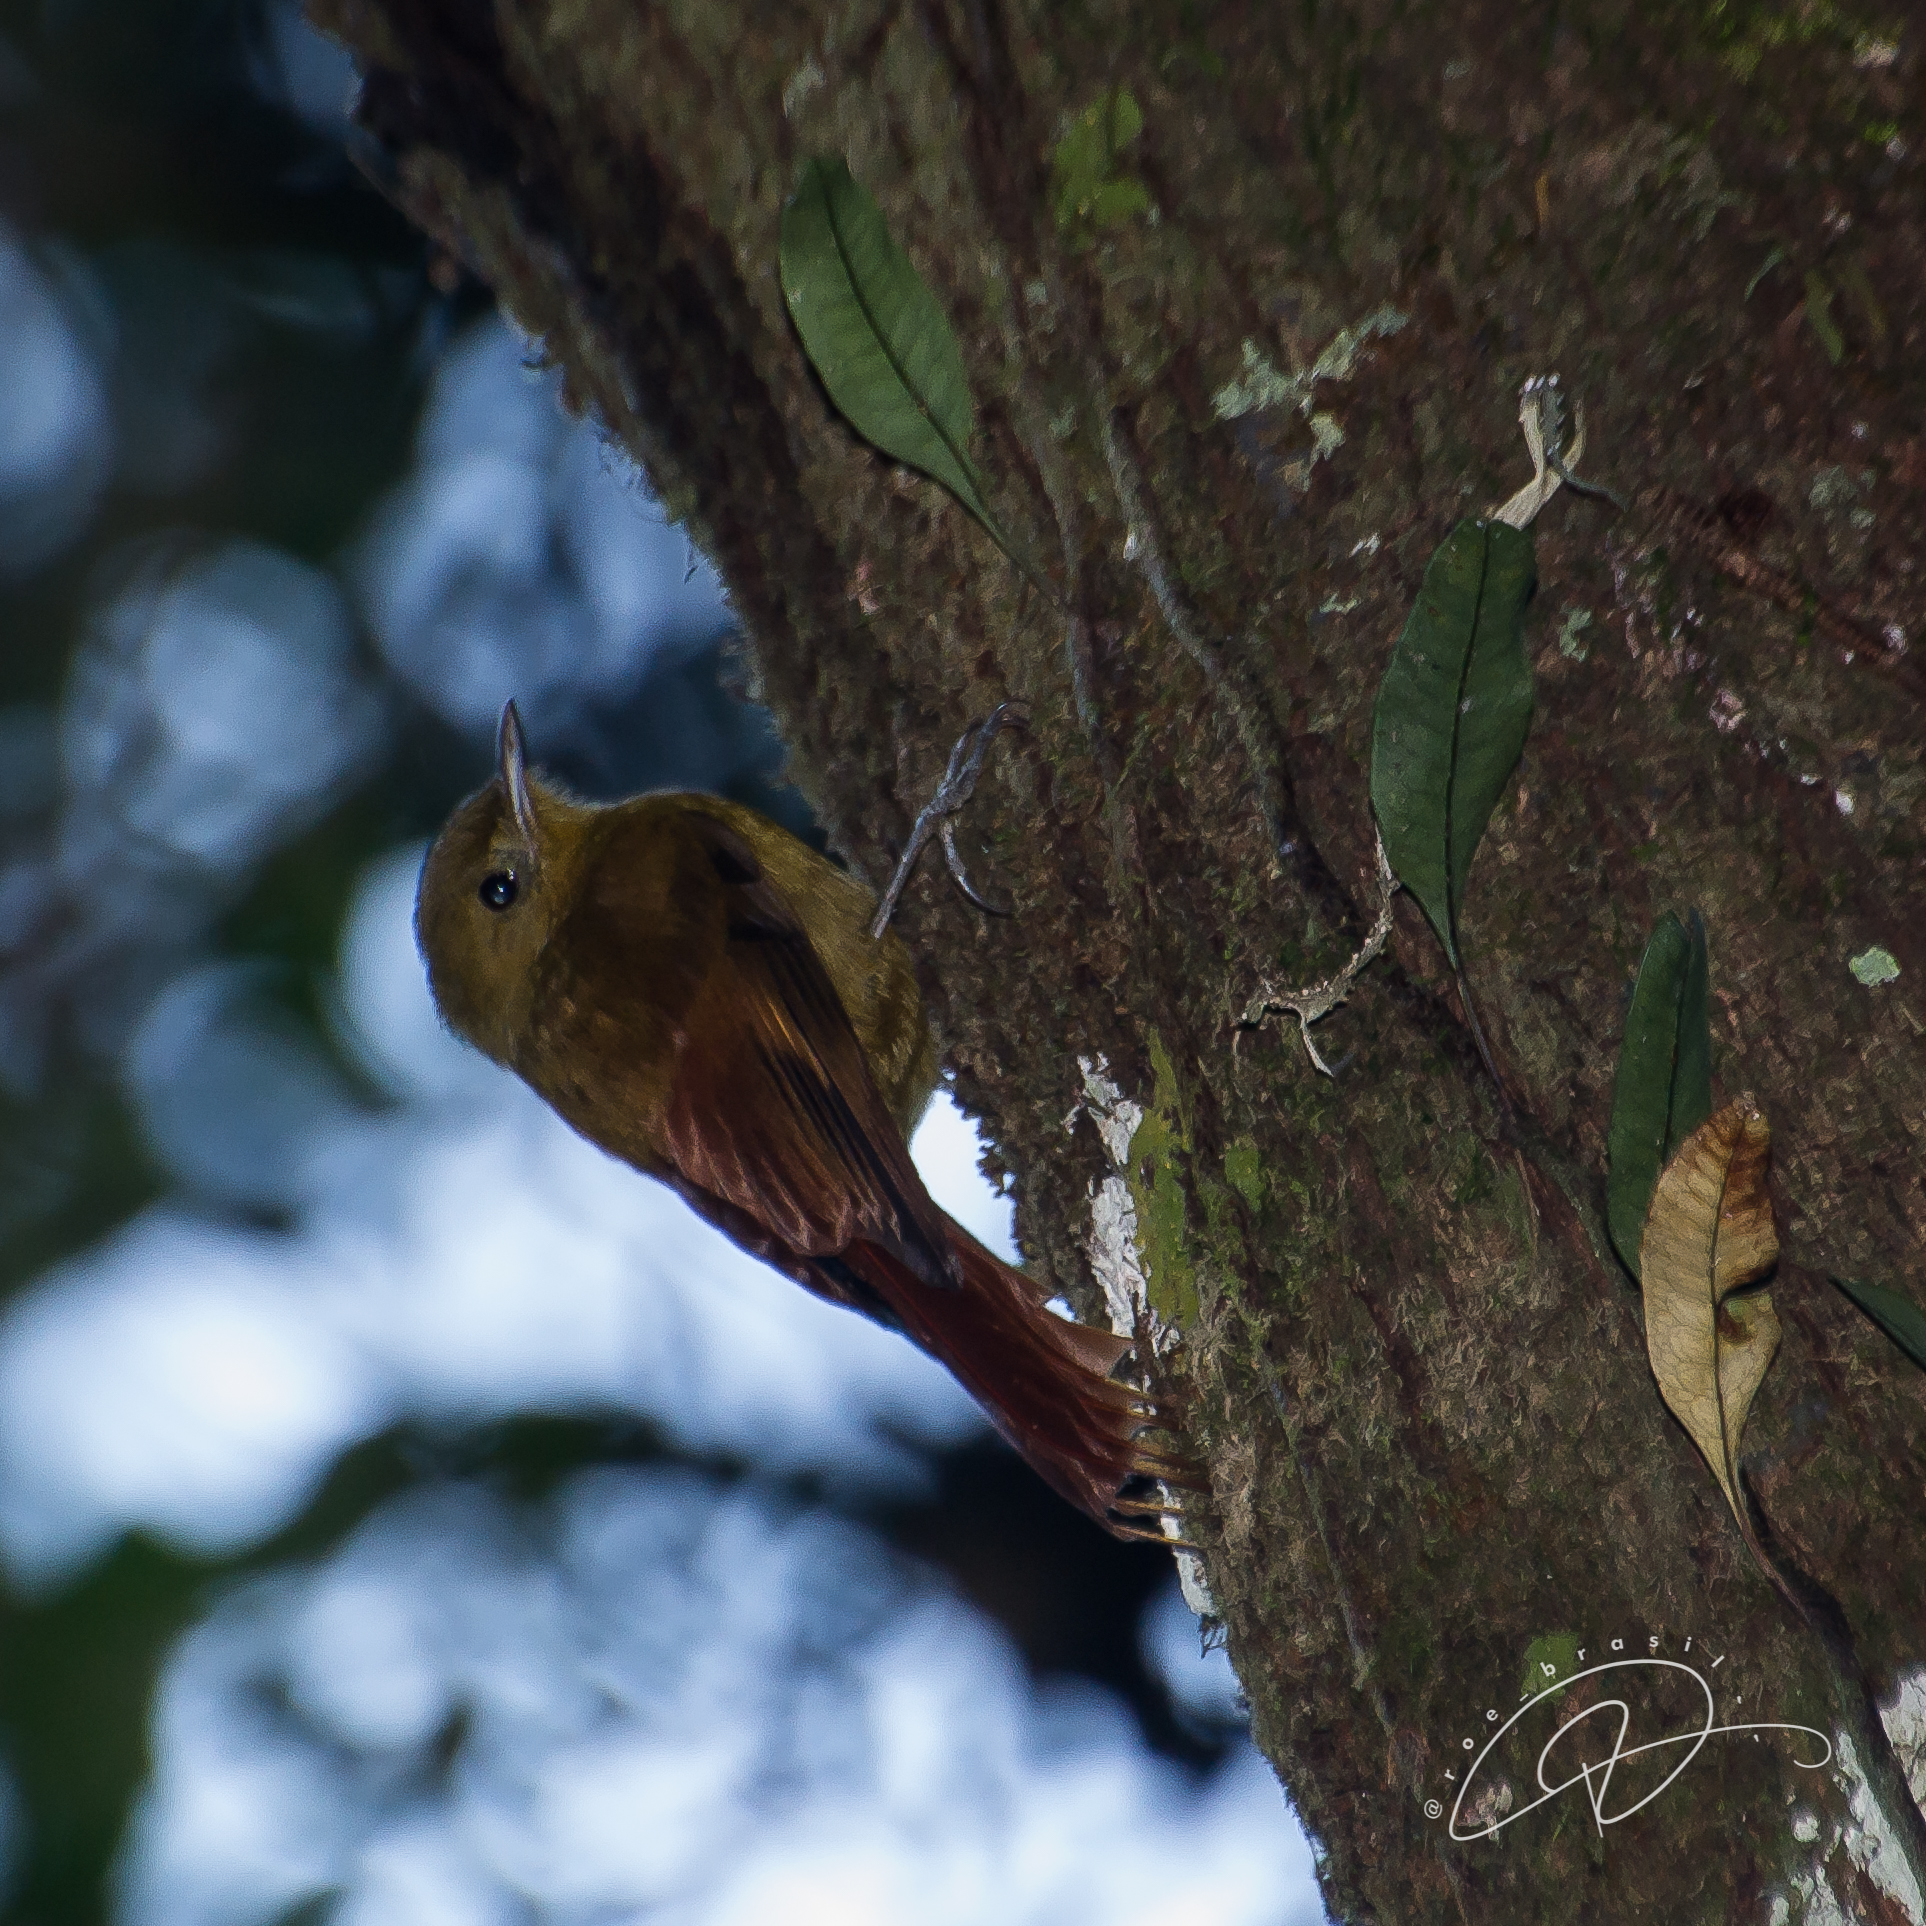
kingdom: Animalia
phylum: Chordata
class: Aves
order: Passeriformes
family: Furnariidae
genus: Sittasomus
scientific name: Sittasomus griseicapillus
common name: Olivaceous woodcreeper
